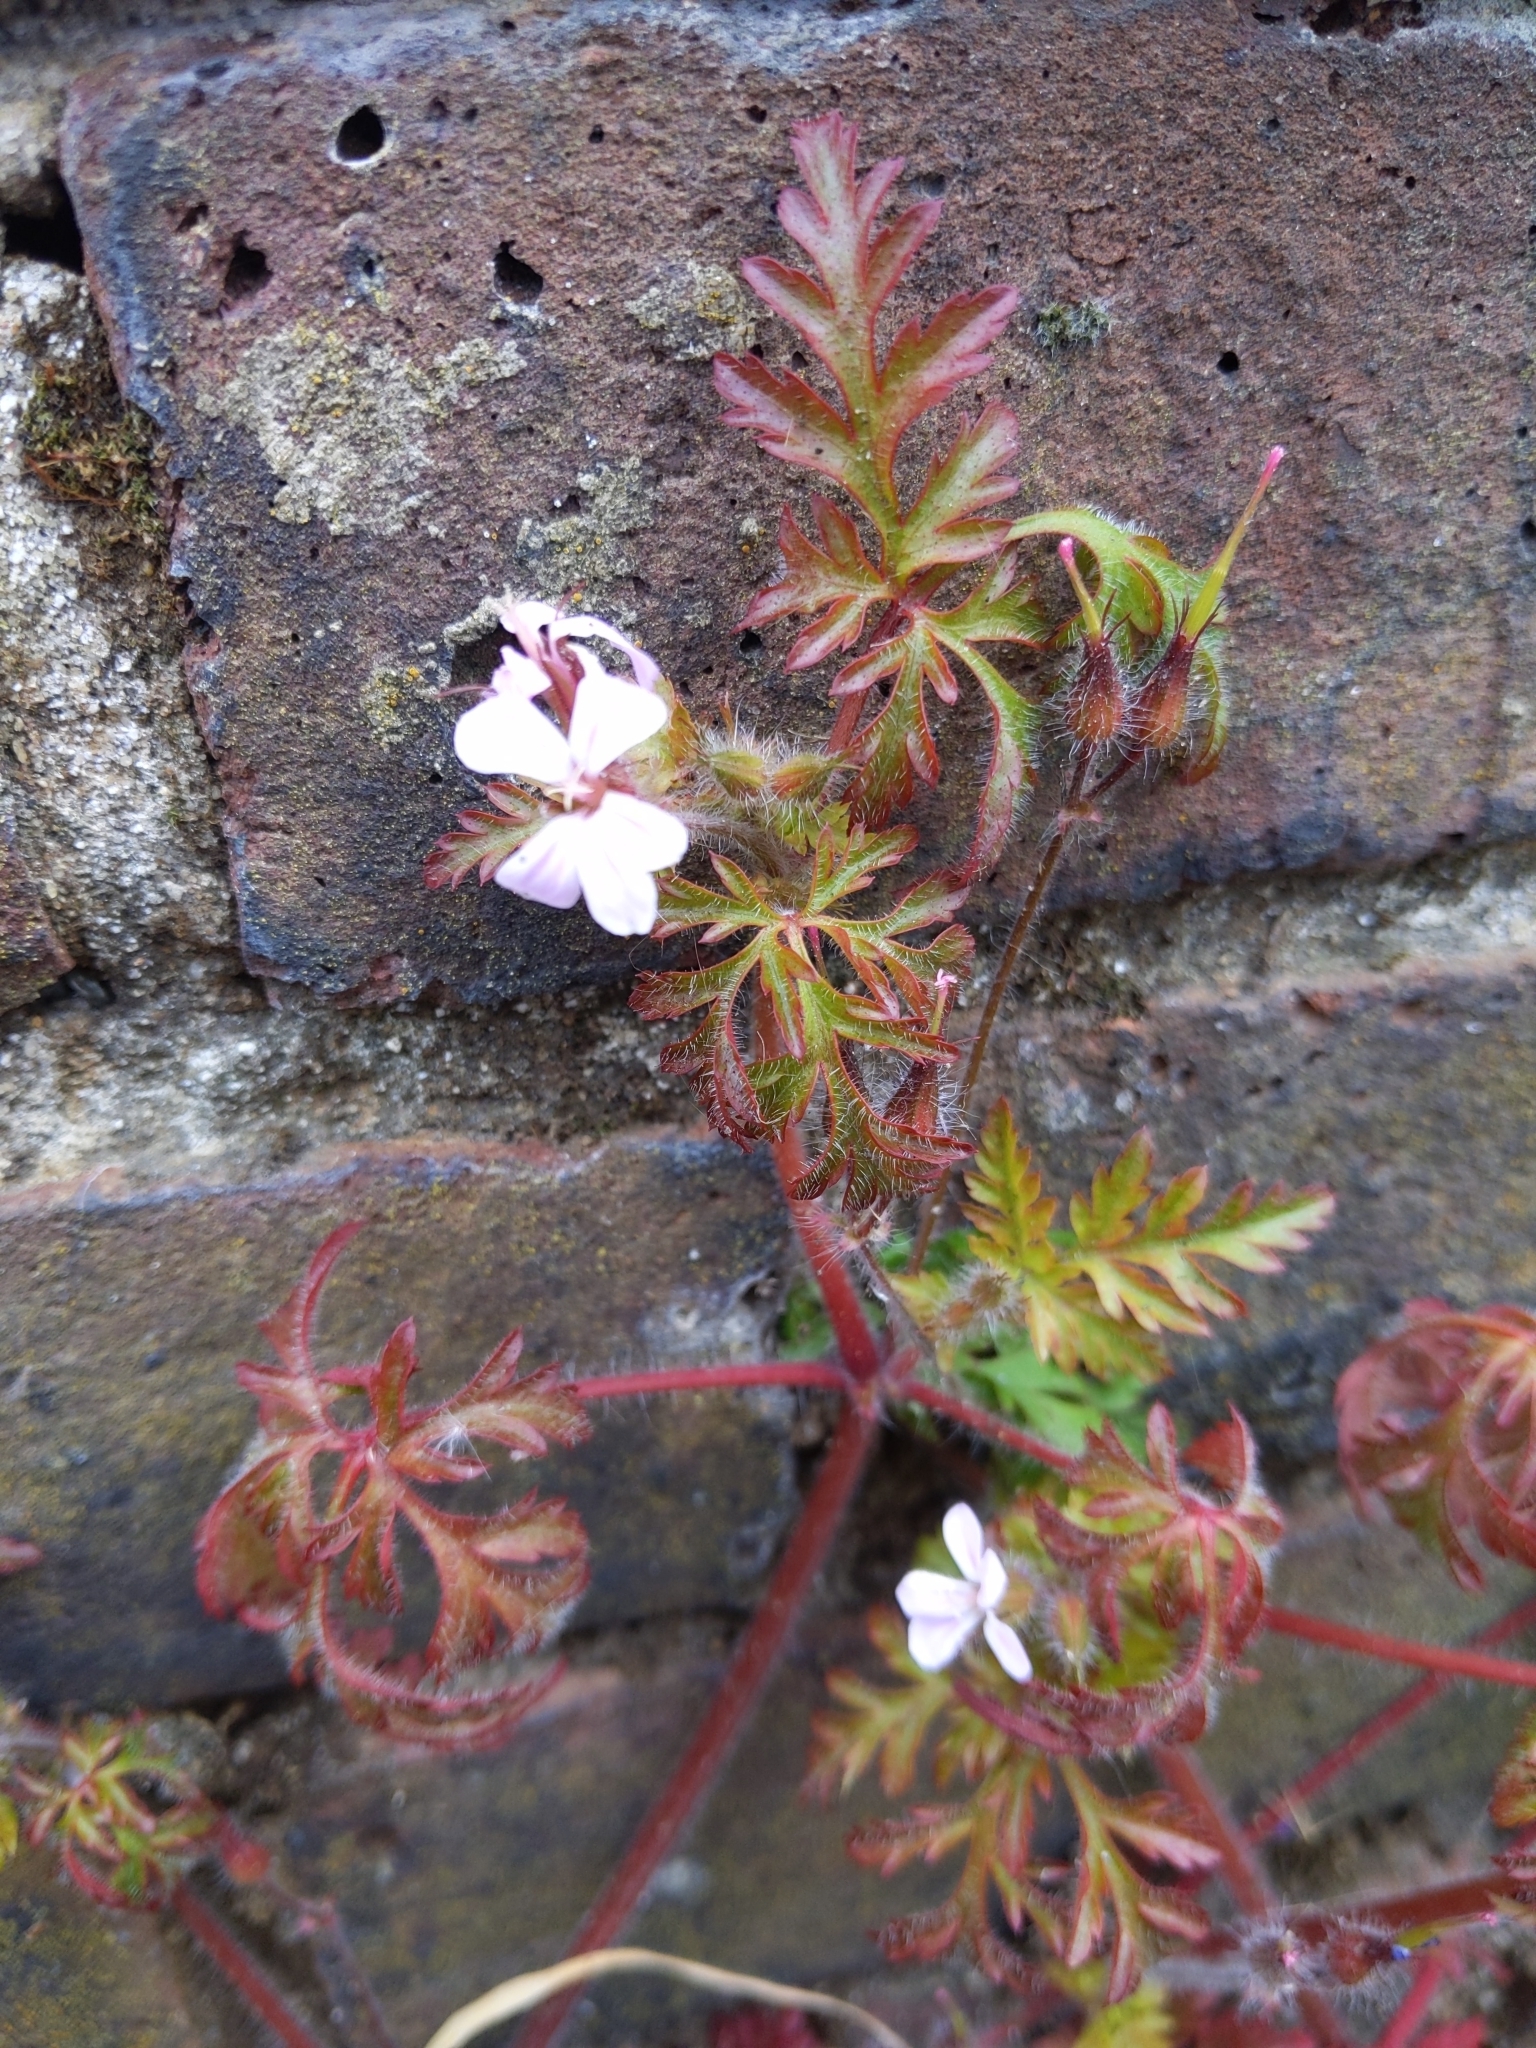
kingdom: Plantae
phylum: Tracheophyta
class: Magnoliopsida
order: Geraniales
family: Geraniaceae
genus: Geranium
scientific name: Geranium robertianum
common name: Herb-robert
